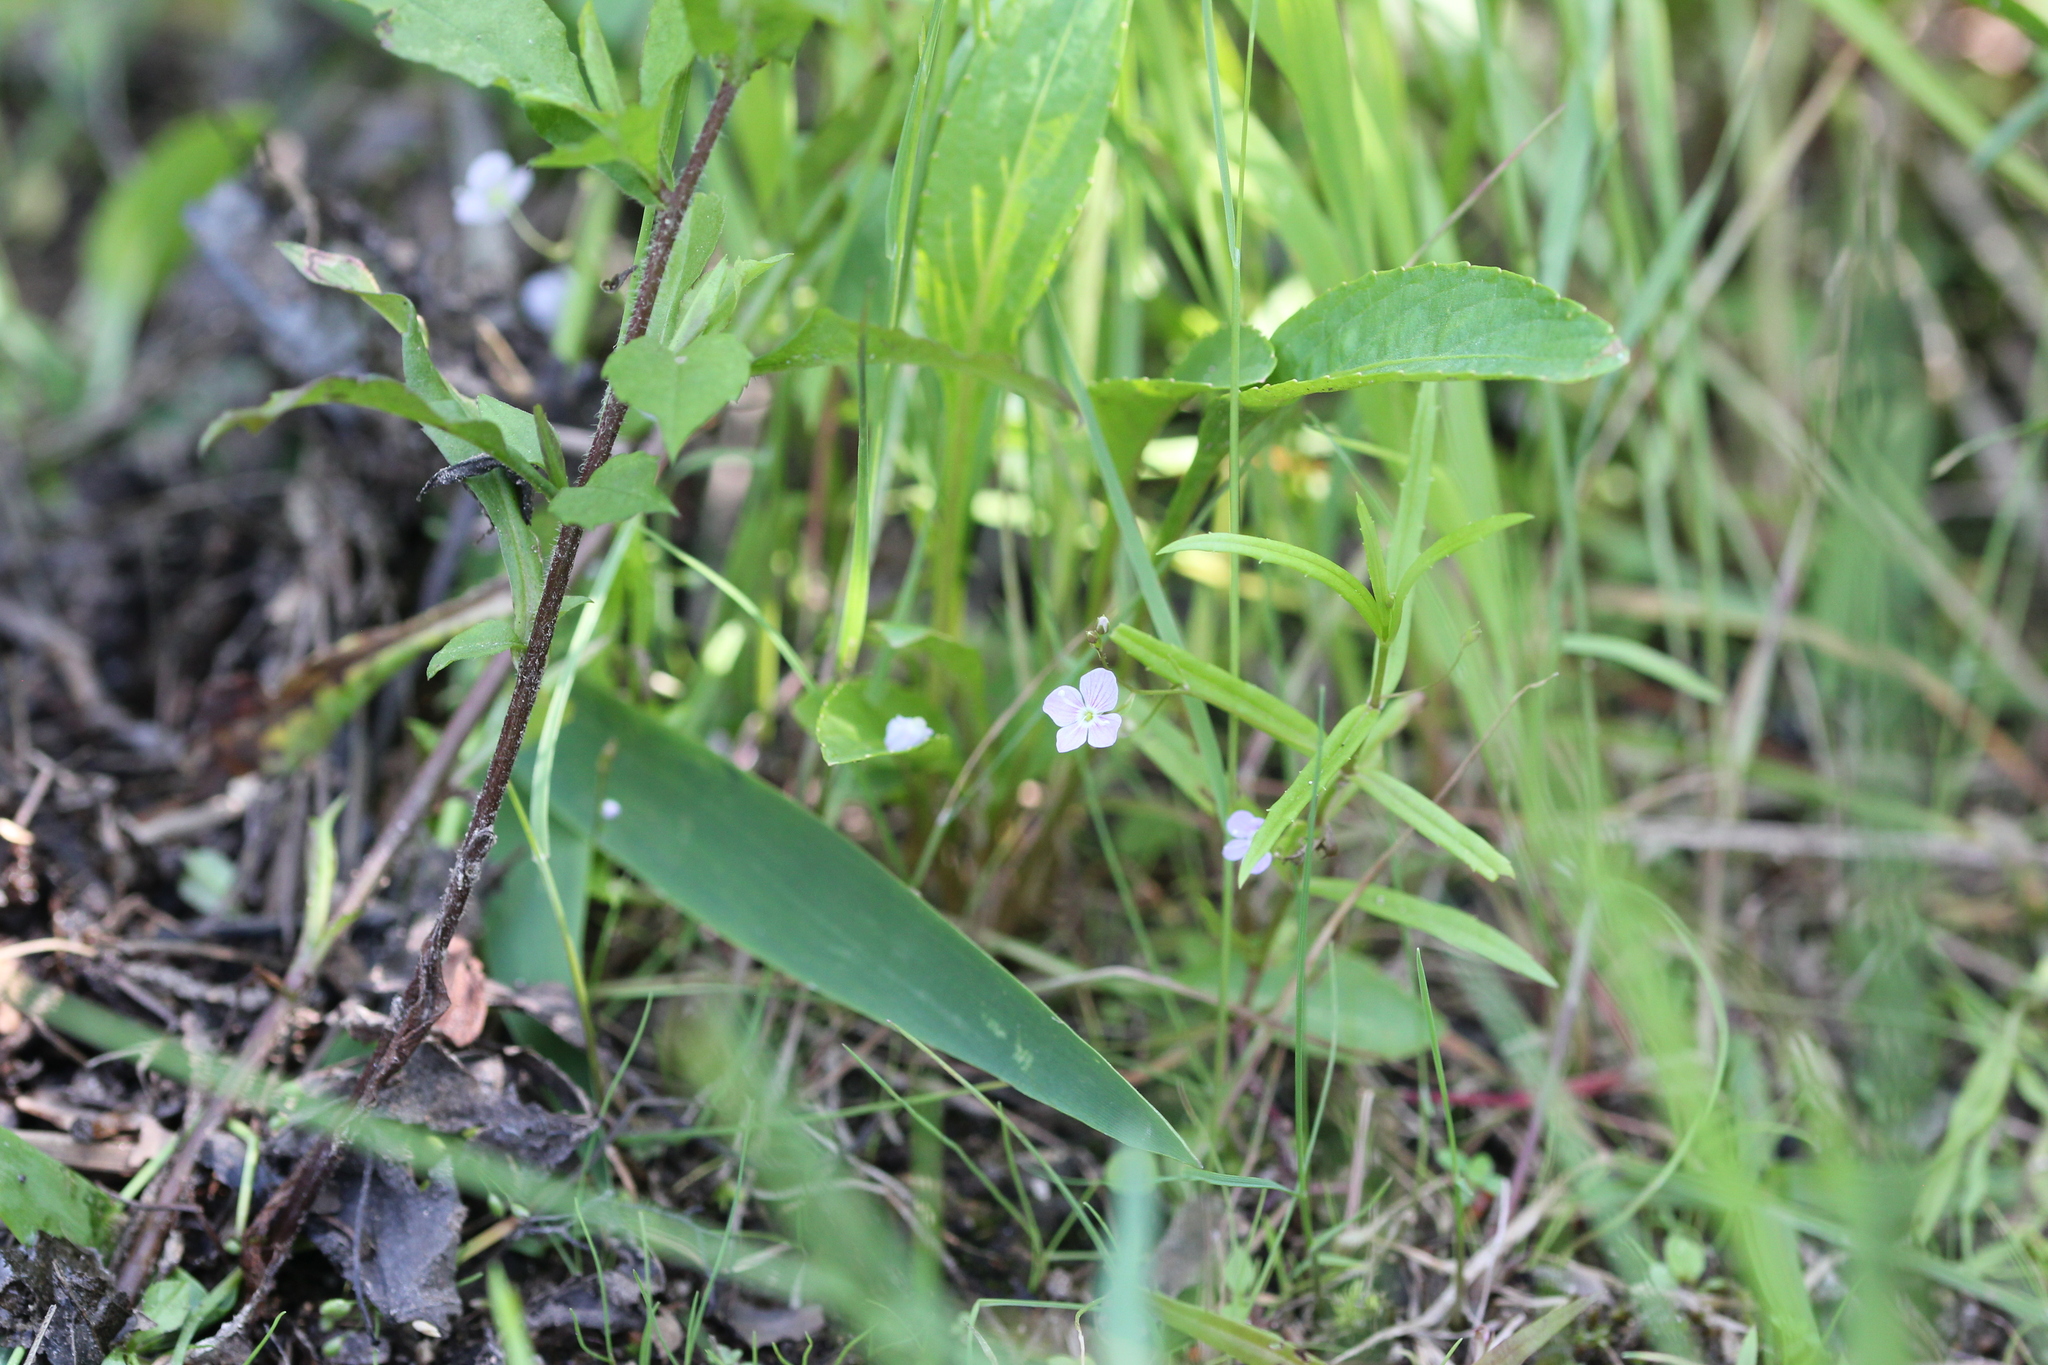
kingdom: Plantae
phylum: Tracheophyta
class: Magnoliopsida
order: Lamiales
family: Plantaginaceae
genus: Veronica
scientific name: Veronica scutellata
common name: Marsh speedwell
